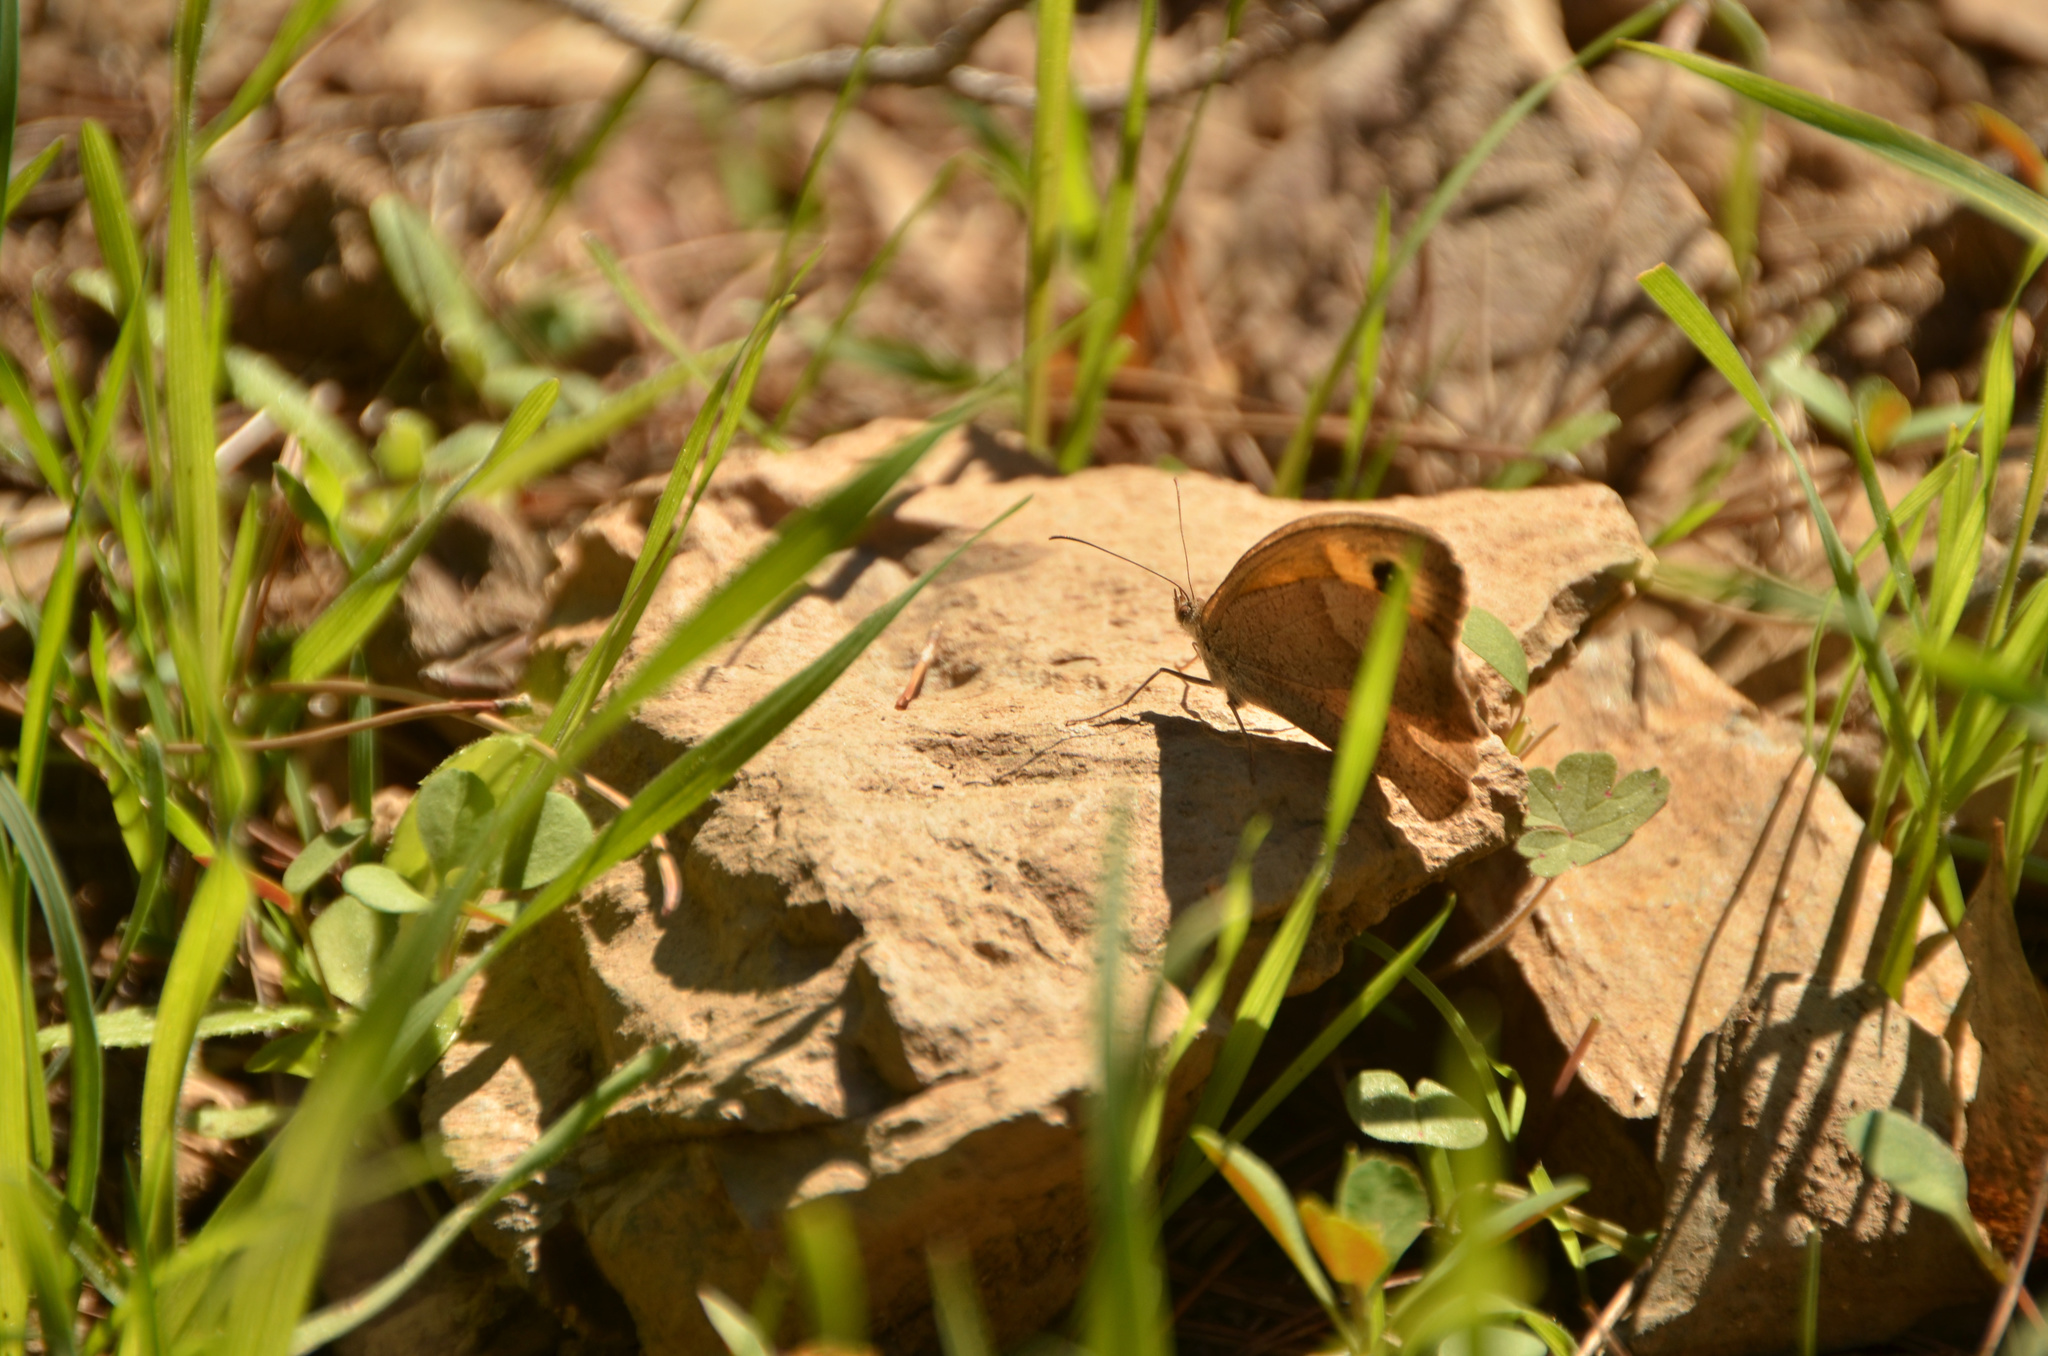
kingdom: Animalia
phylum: Arthropoda
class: Insecta
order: Lepidoptera
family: Nymphalidae
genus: Maniola
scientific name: Maniola jurtina
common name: Meadow brown
